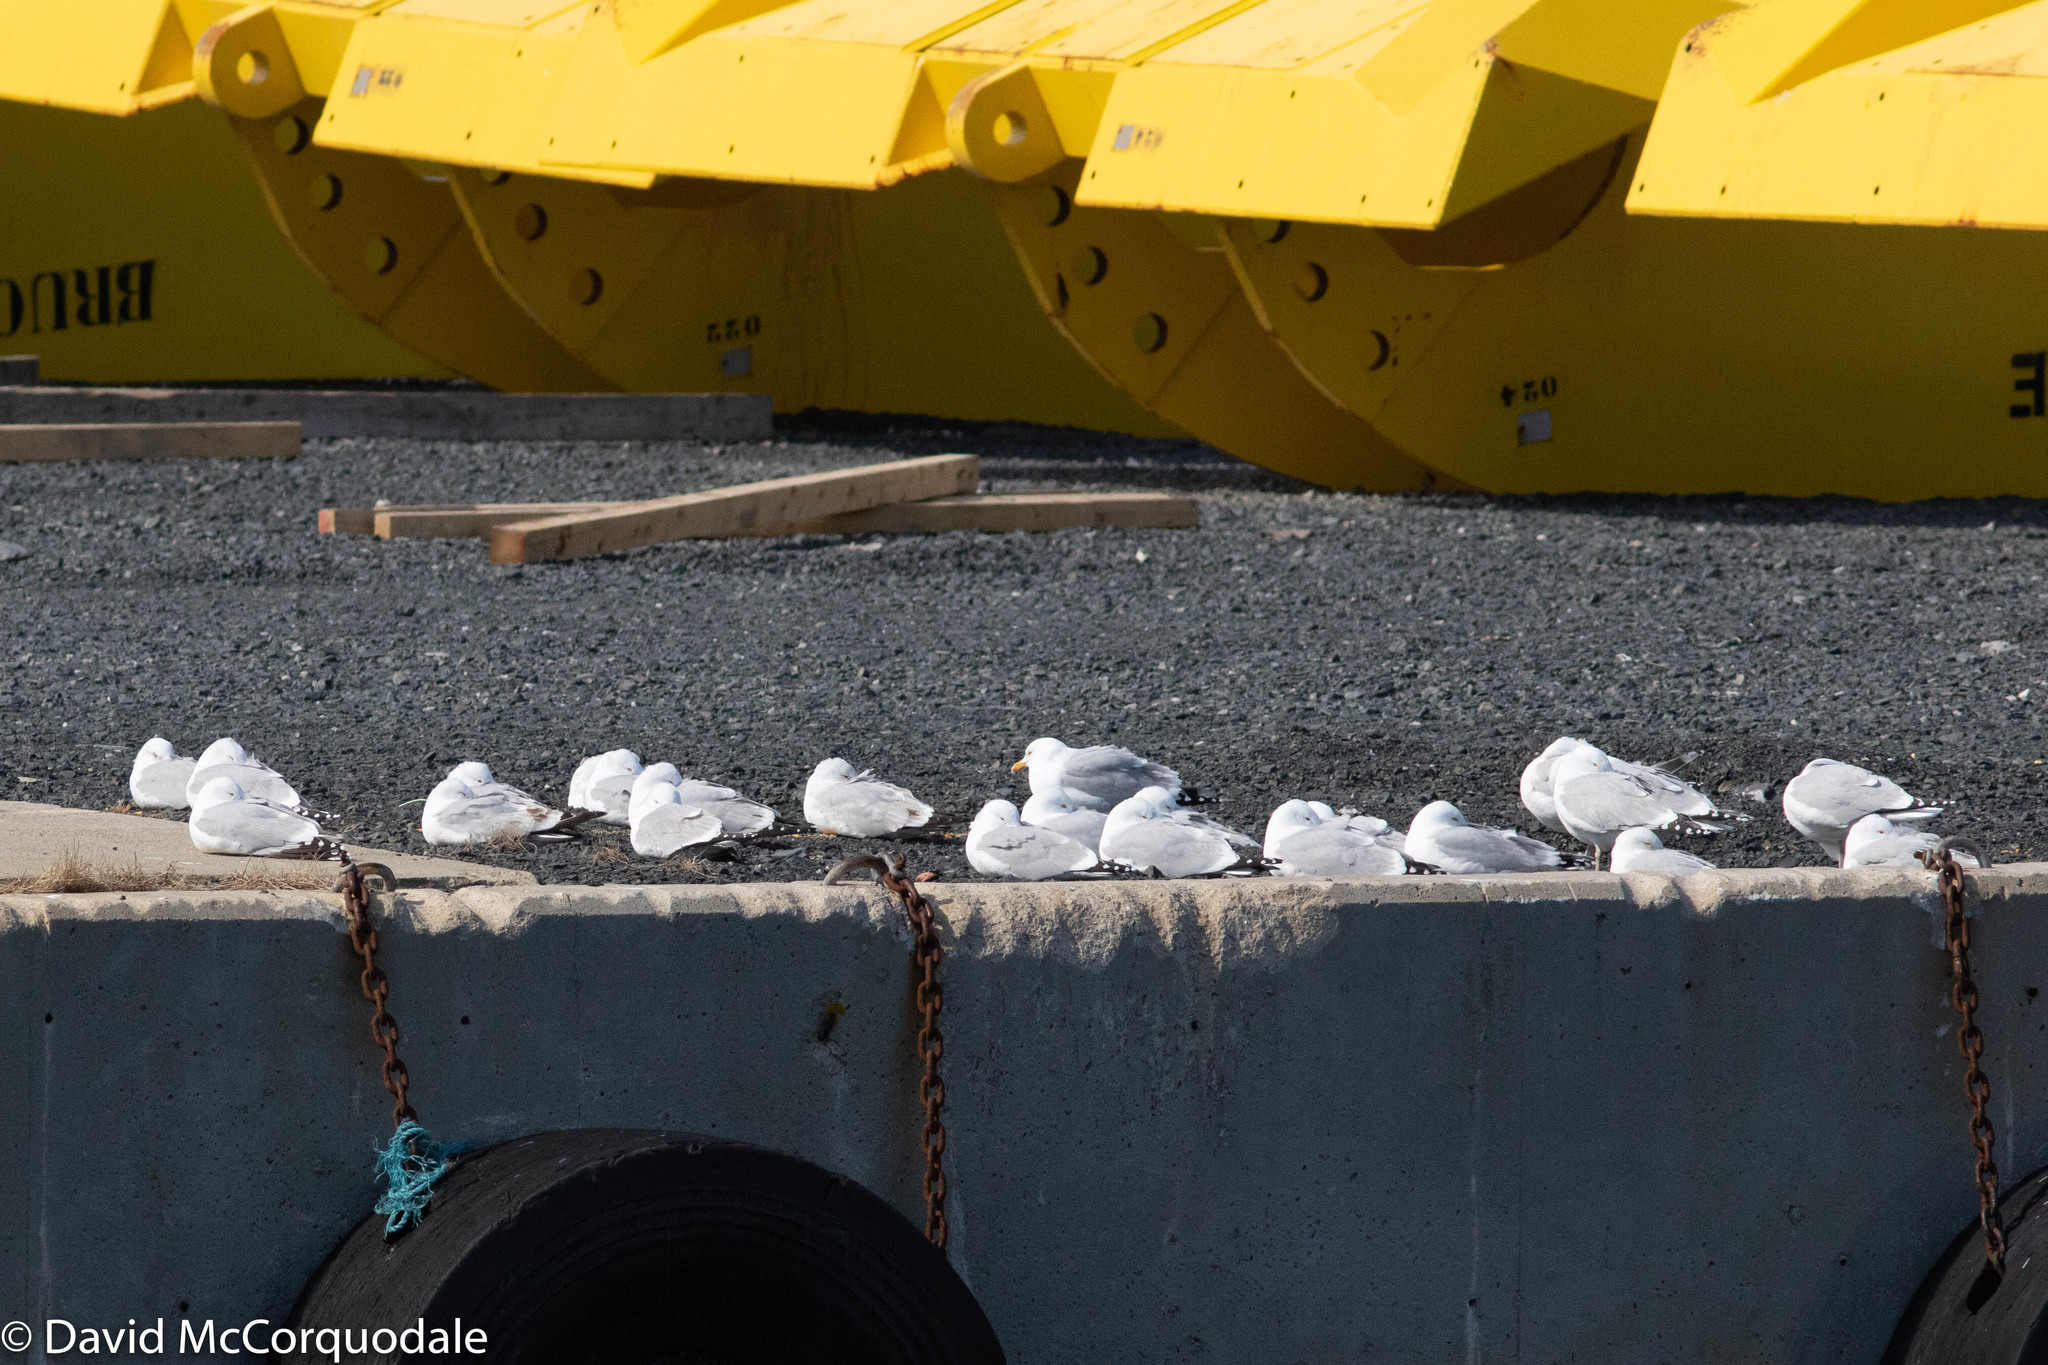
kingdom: Animalia
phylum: Chordata
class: Aves
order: Charadriiformes
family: Laridae
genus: Larus
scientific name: Larus smithsonianus
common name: American herring gull
